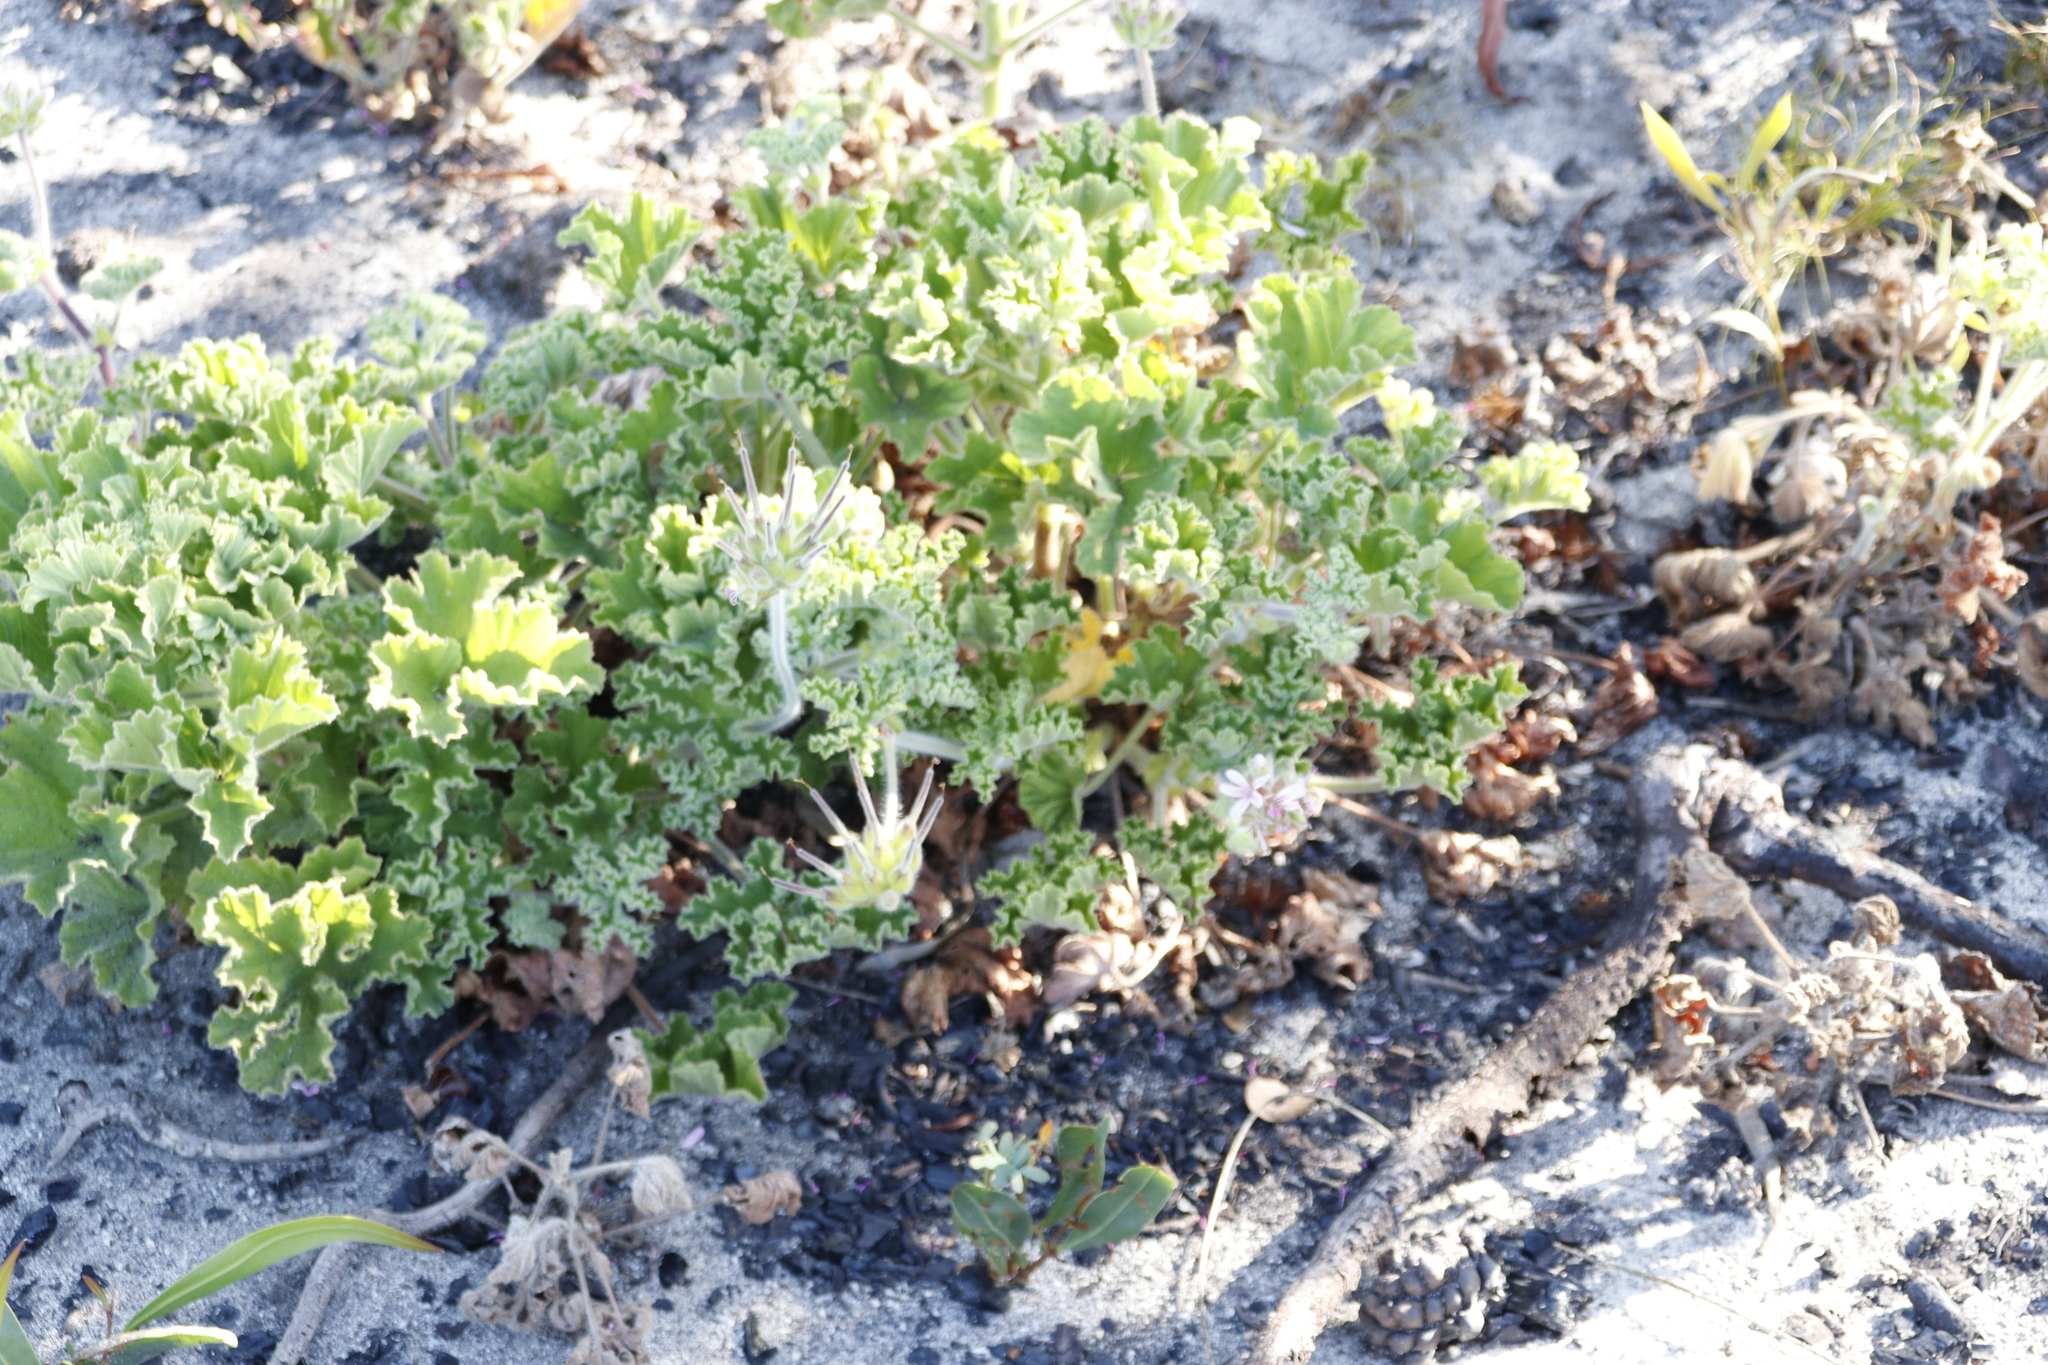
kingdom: Plantae
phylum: Tracheophyta
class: Magnoliopsida
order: Geraniales
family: Geraniaceae
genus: Pelargonium
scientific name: Pelargonium capitatum
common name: Rose scented geranium
